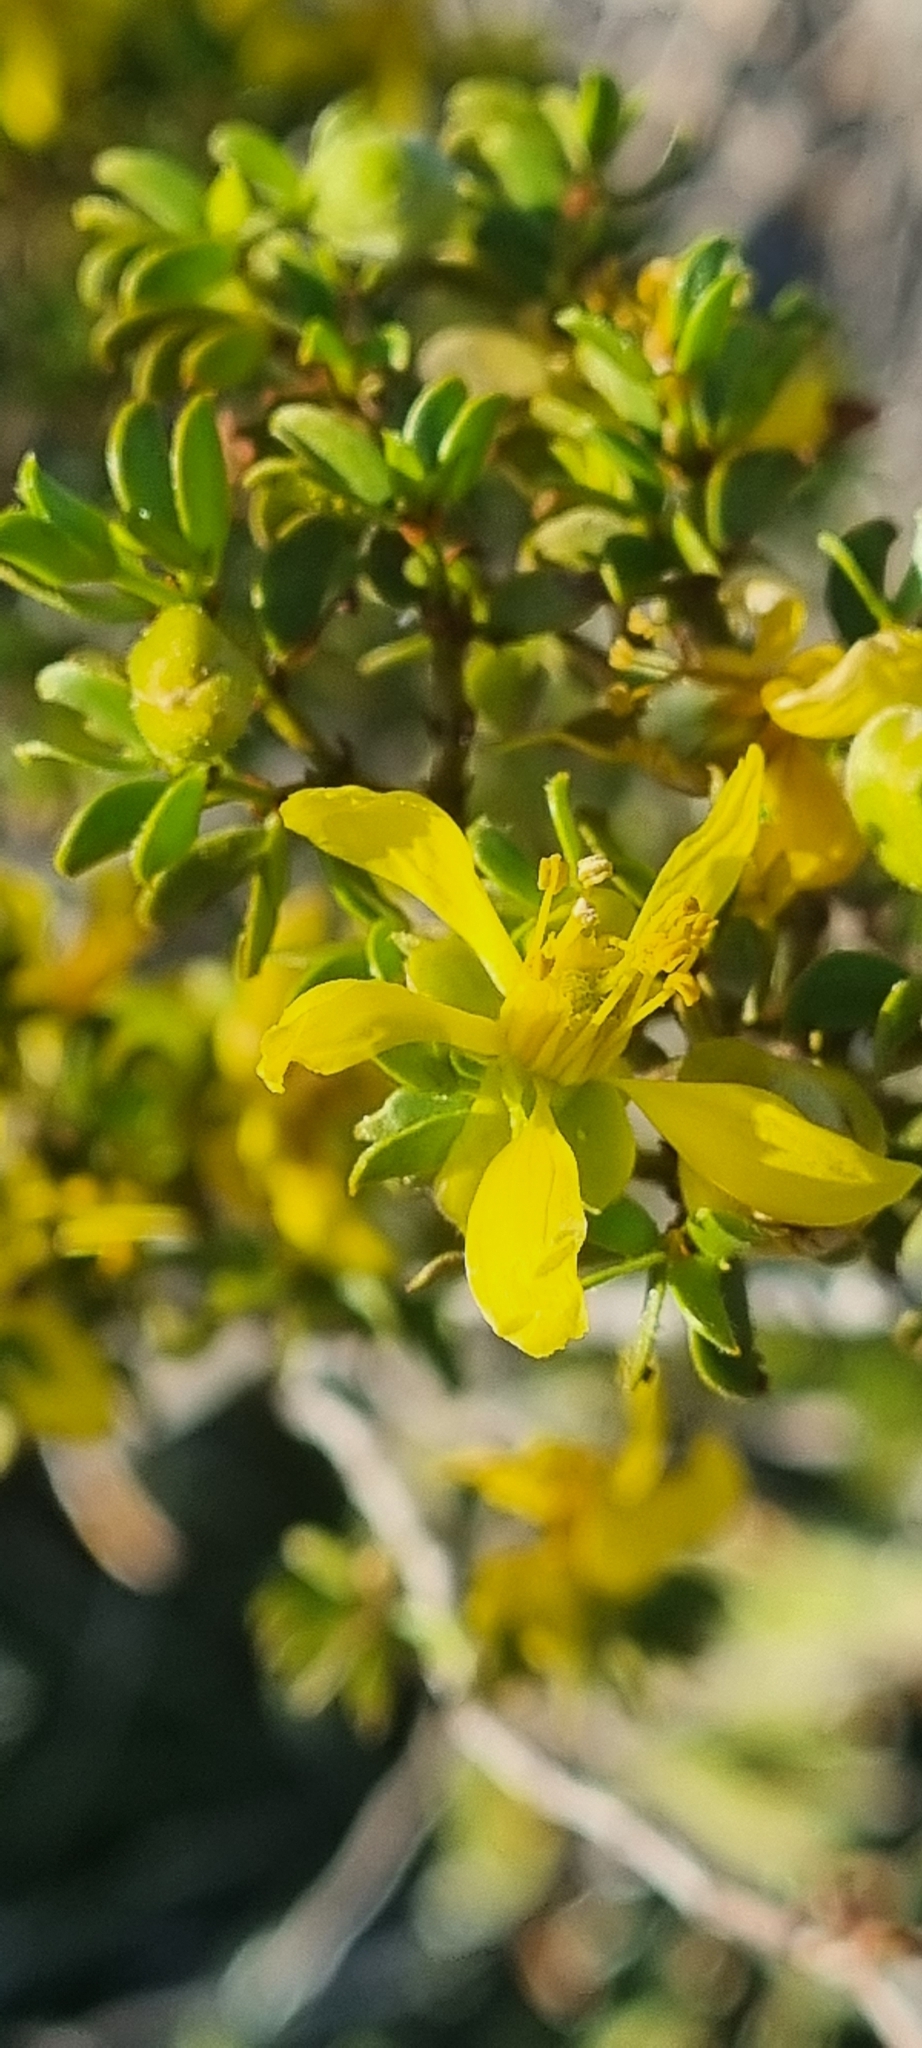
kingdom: Plantae
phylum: Tracheophyta
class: Magnoliopsida
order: Zygophyllales
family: Zygophyllaceae
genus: Larrea
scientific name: Larrea tridentata
